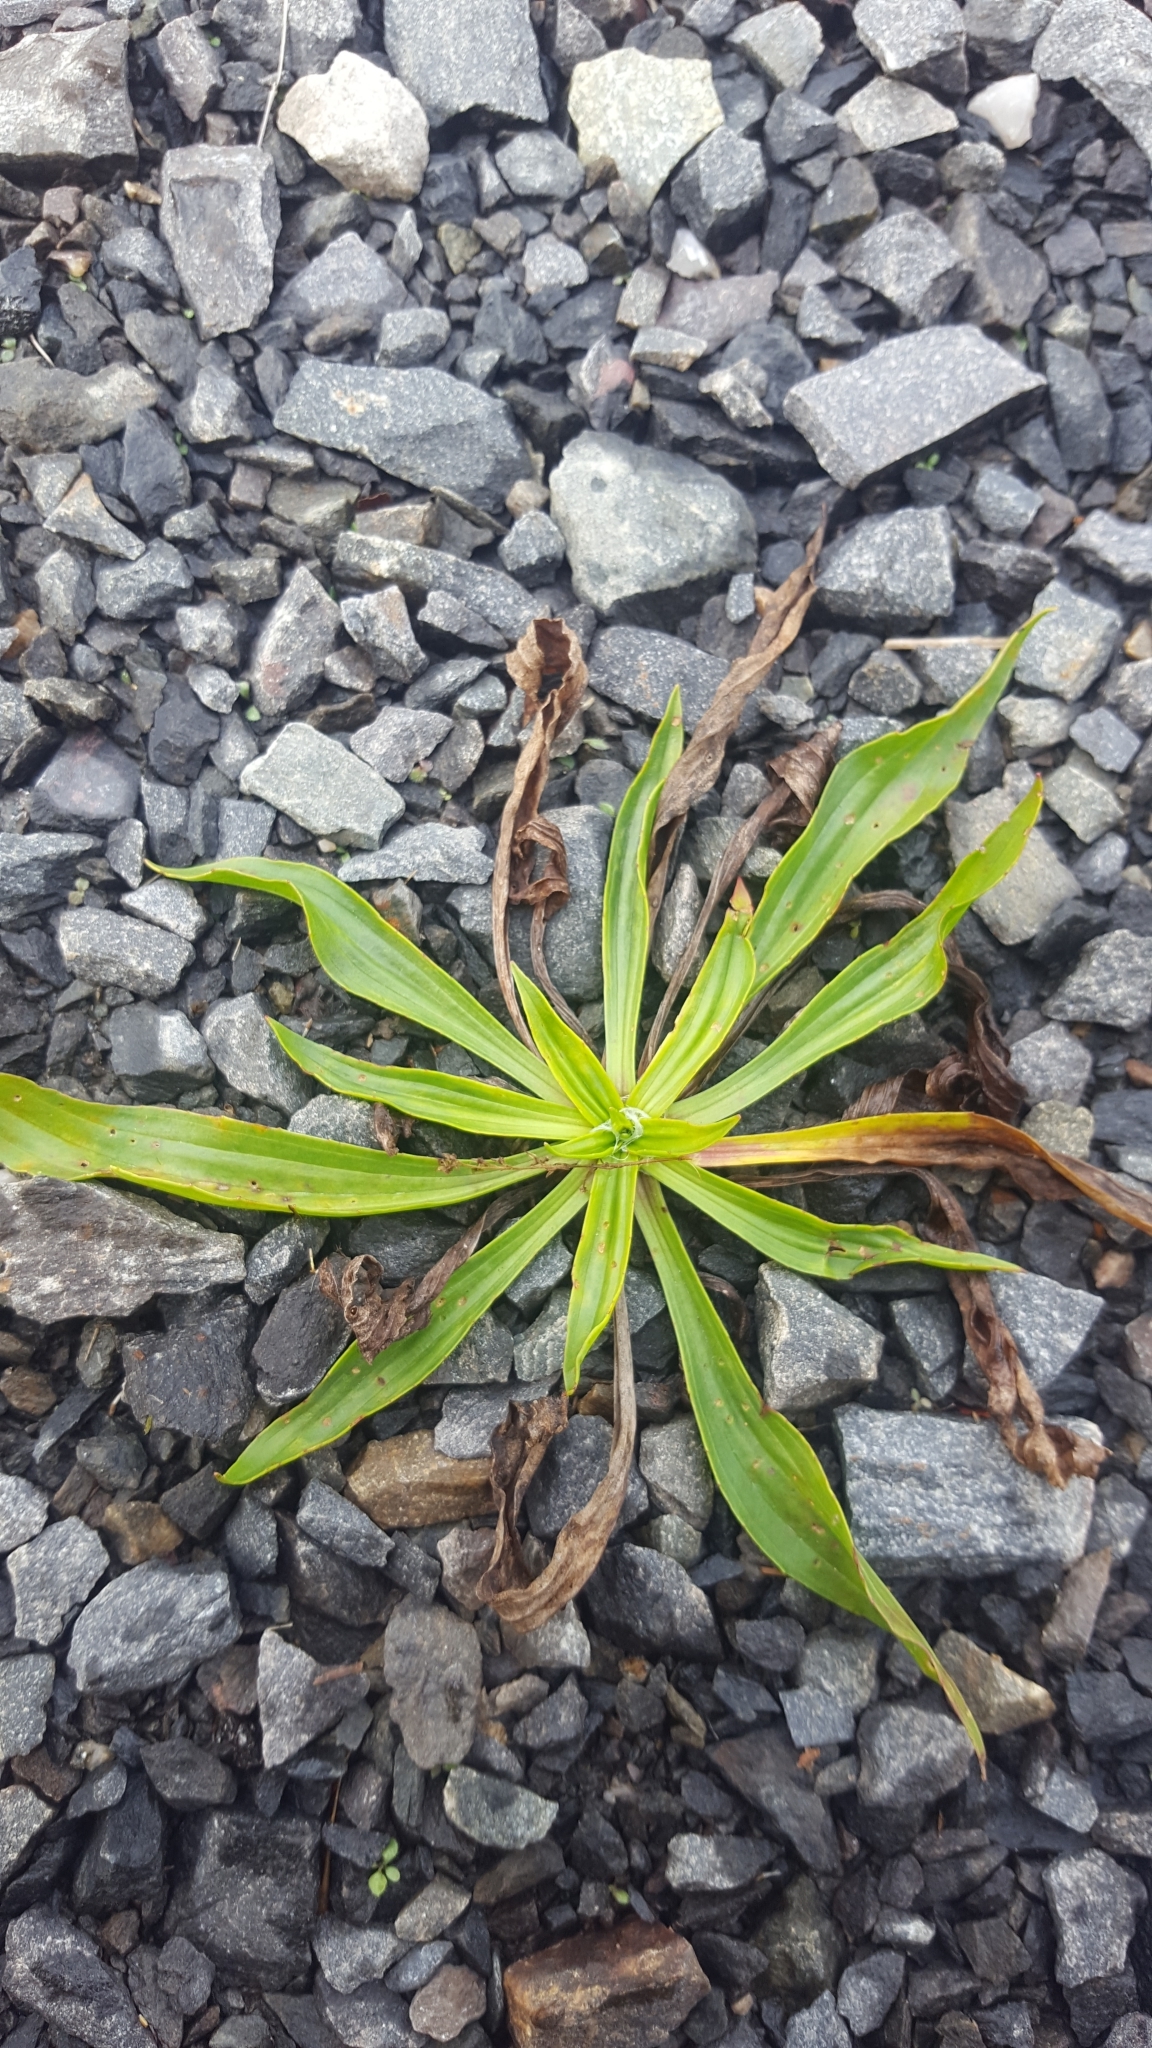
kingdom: Plantae
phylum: Tracheophyta
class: Magnoliopsida
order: Lamiales
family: Plantaginaceae
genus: Plantago
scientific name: Plantago lanceolata
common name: Ribwort plantain
